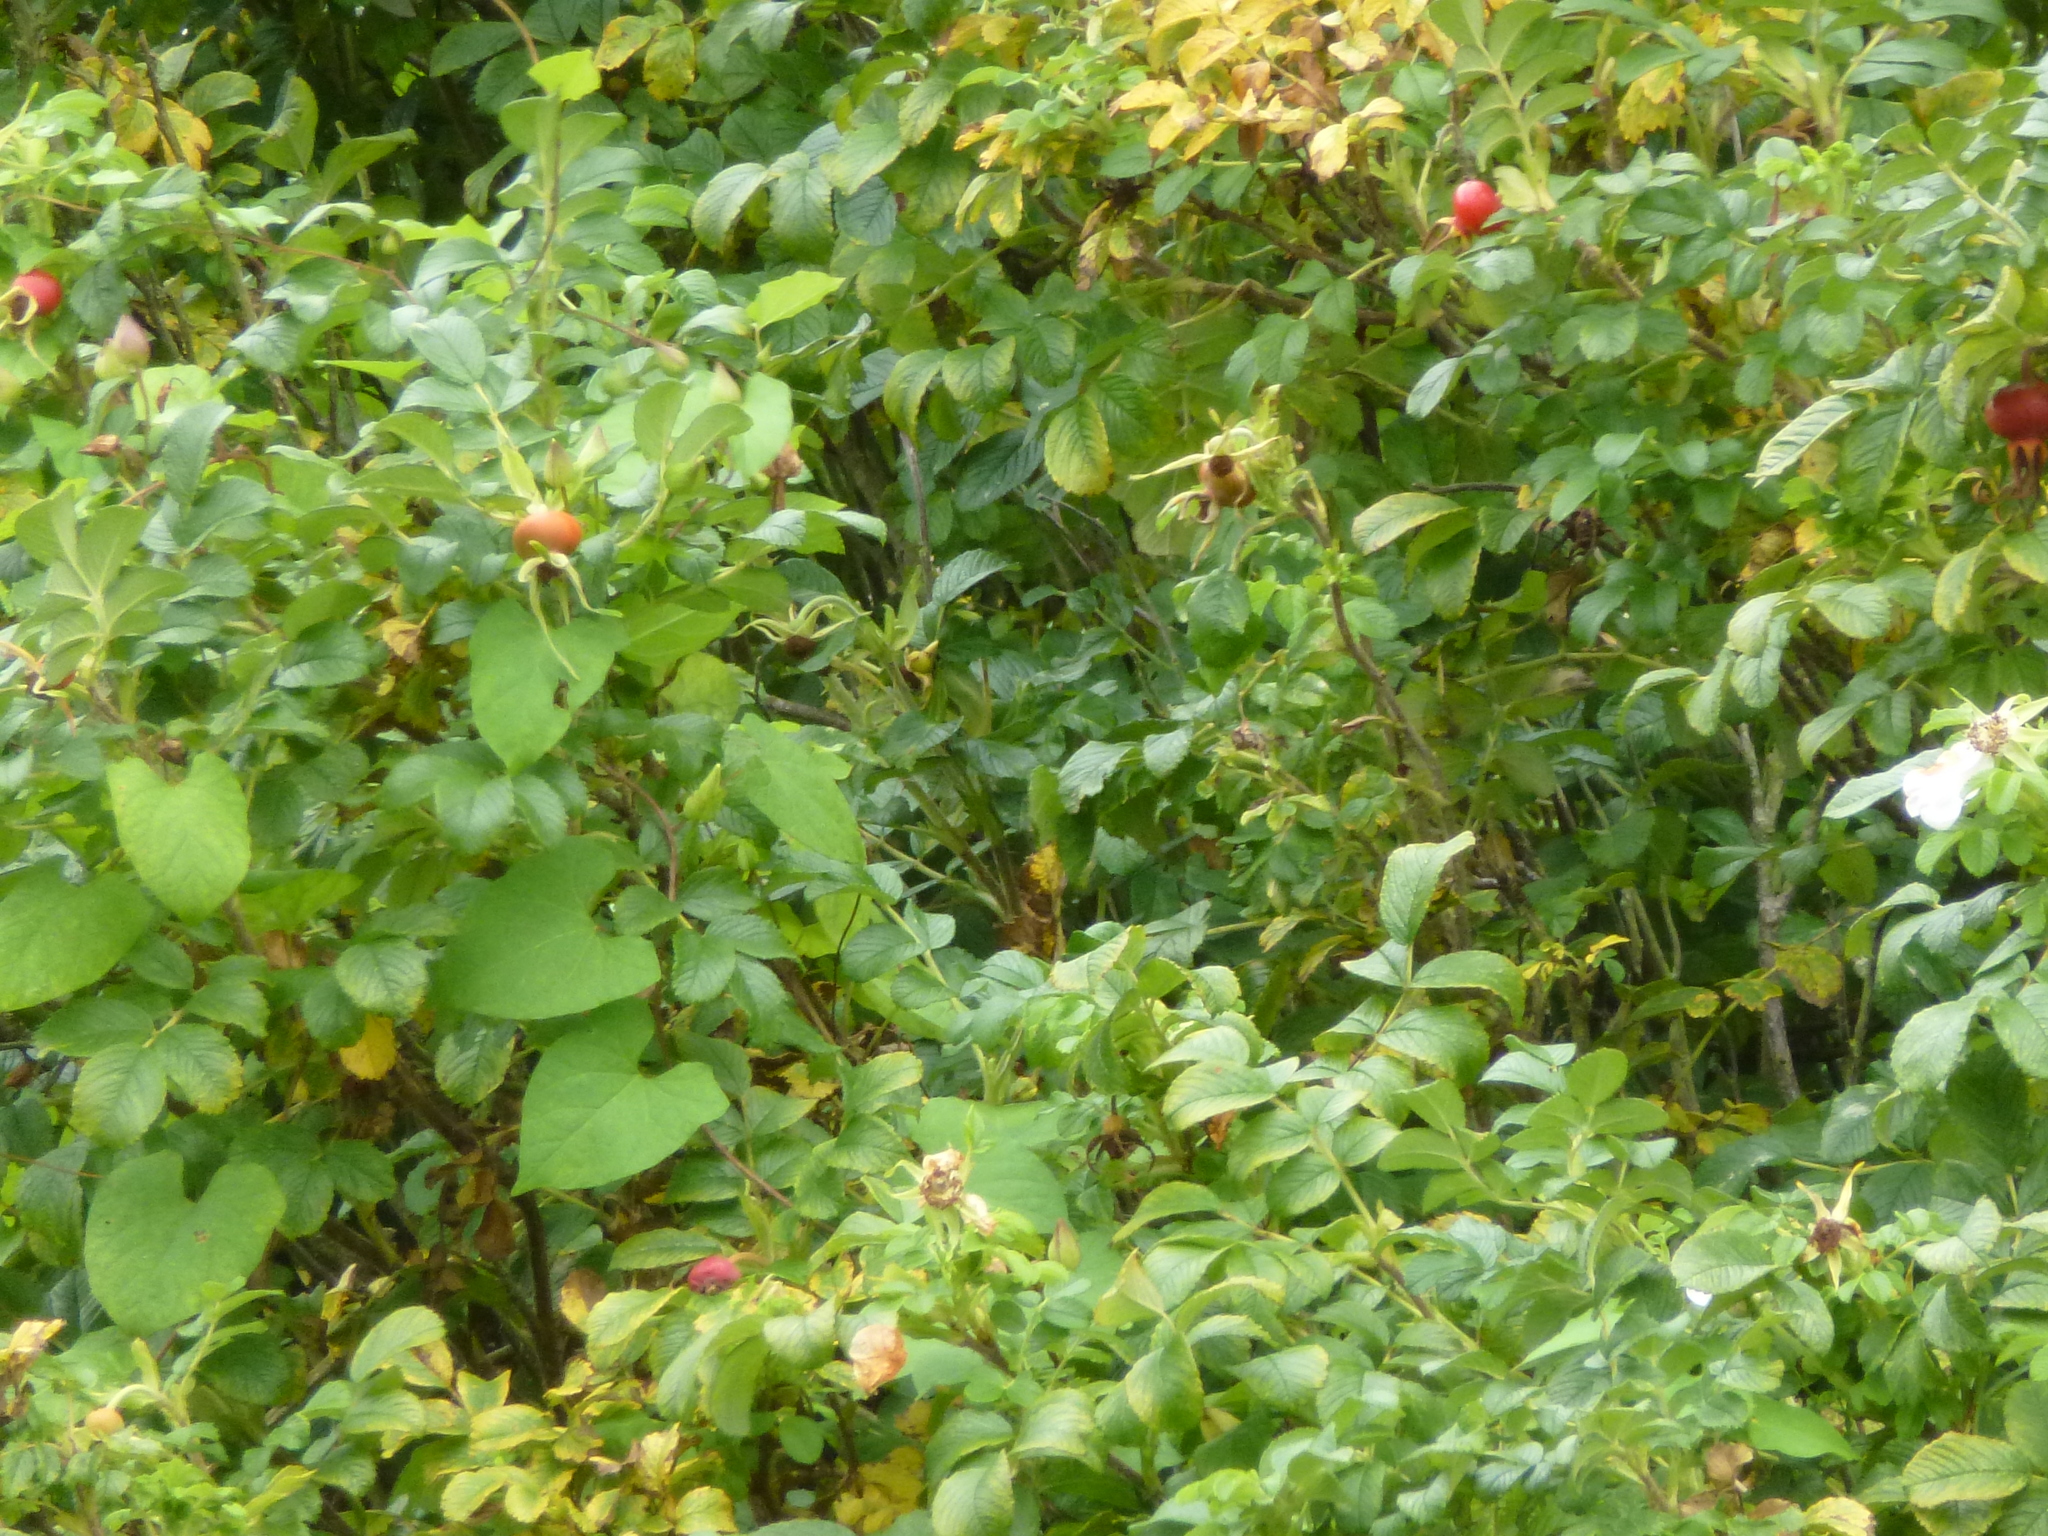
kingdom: Plantae
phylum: Tracheophyta
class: Magnoliopsida
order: Rosales
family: Rosaceae
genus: Rosa
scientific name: Rosa rugosa
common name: Japanese rose
